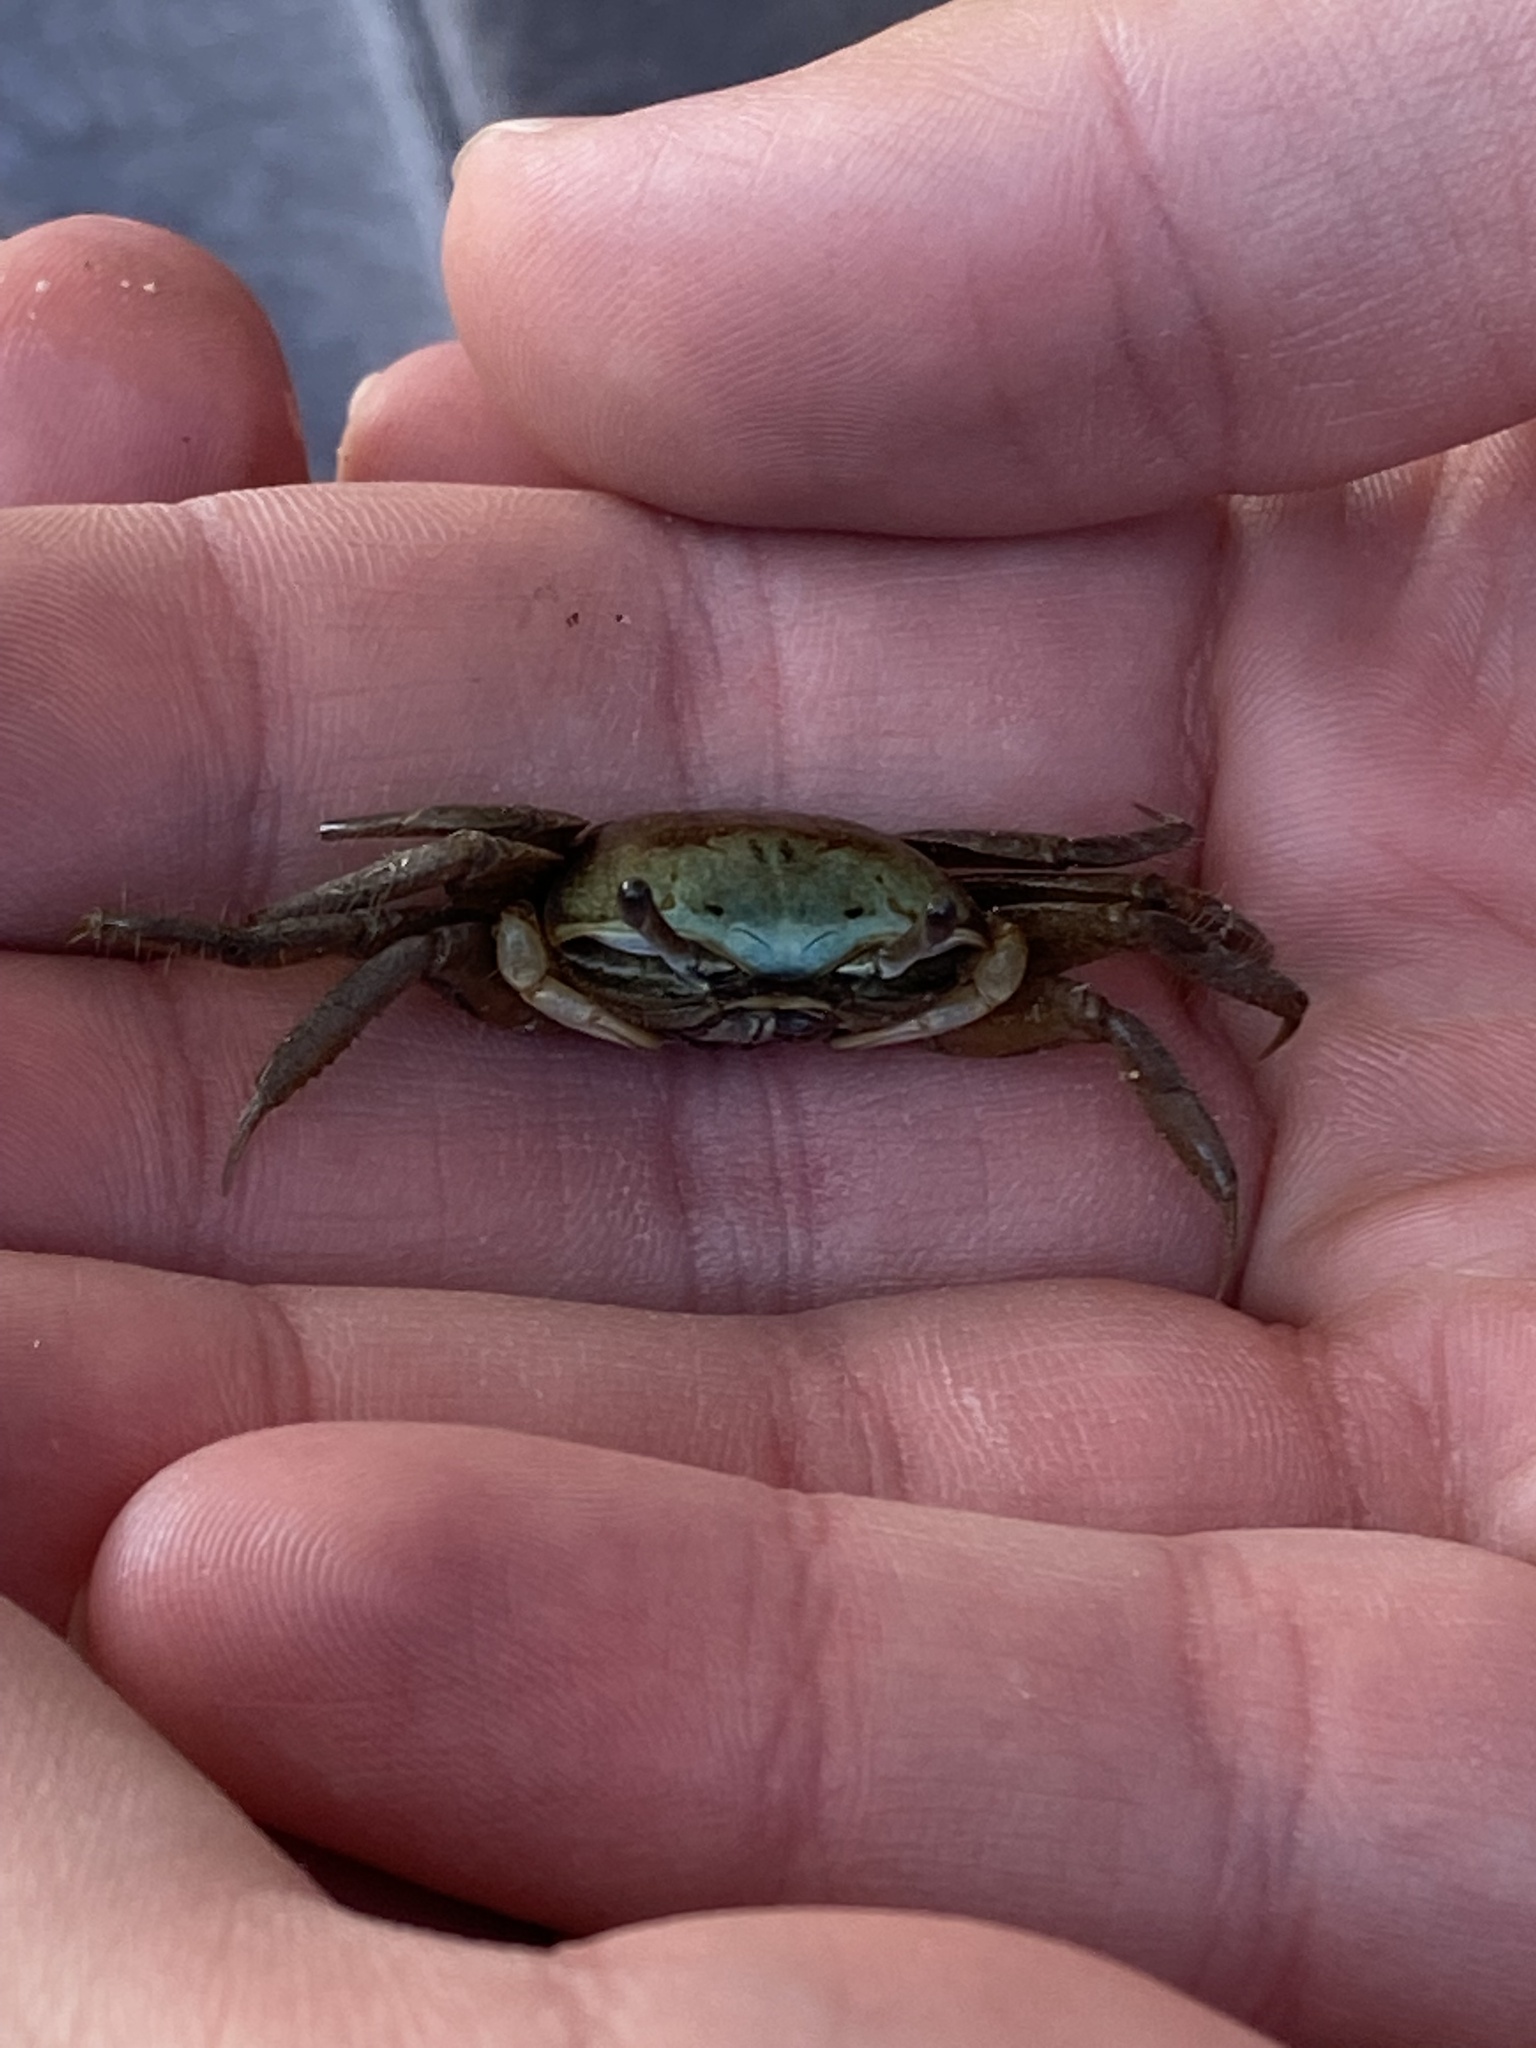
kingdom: Animalia
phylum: Arthropoda
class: Malacostraca
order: Decapoda
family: Ocypodidae
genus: Minuca
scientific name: Minuca longisignalis
